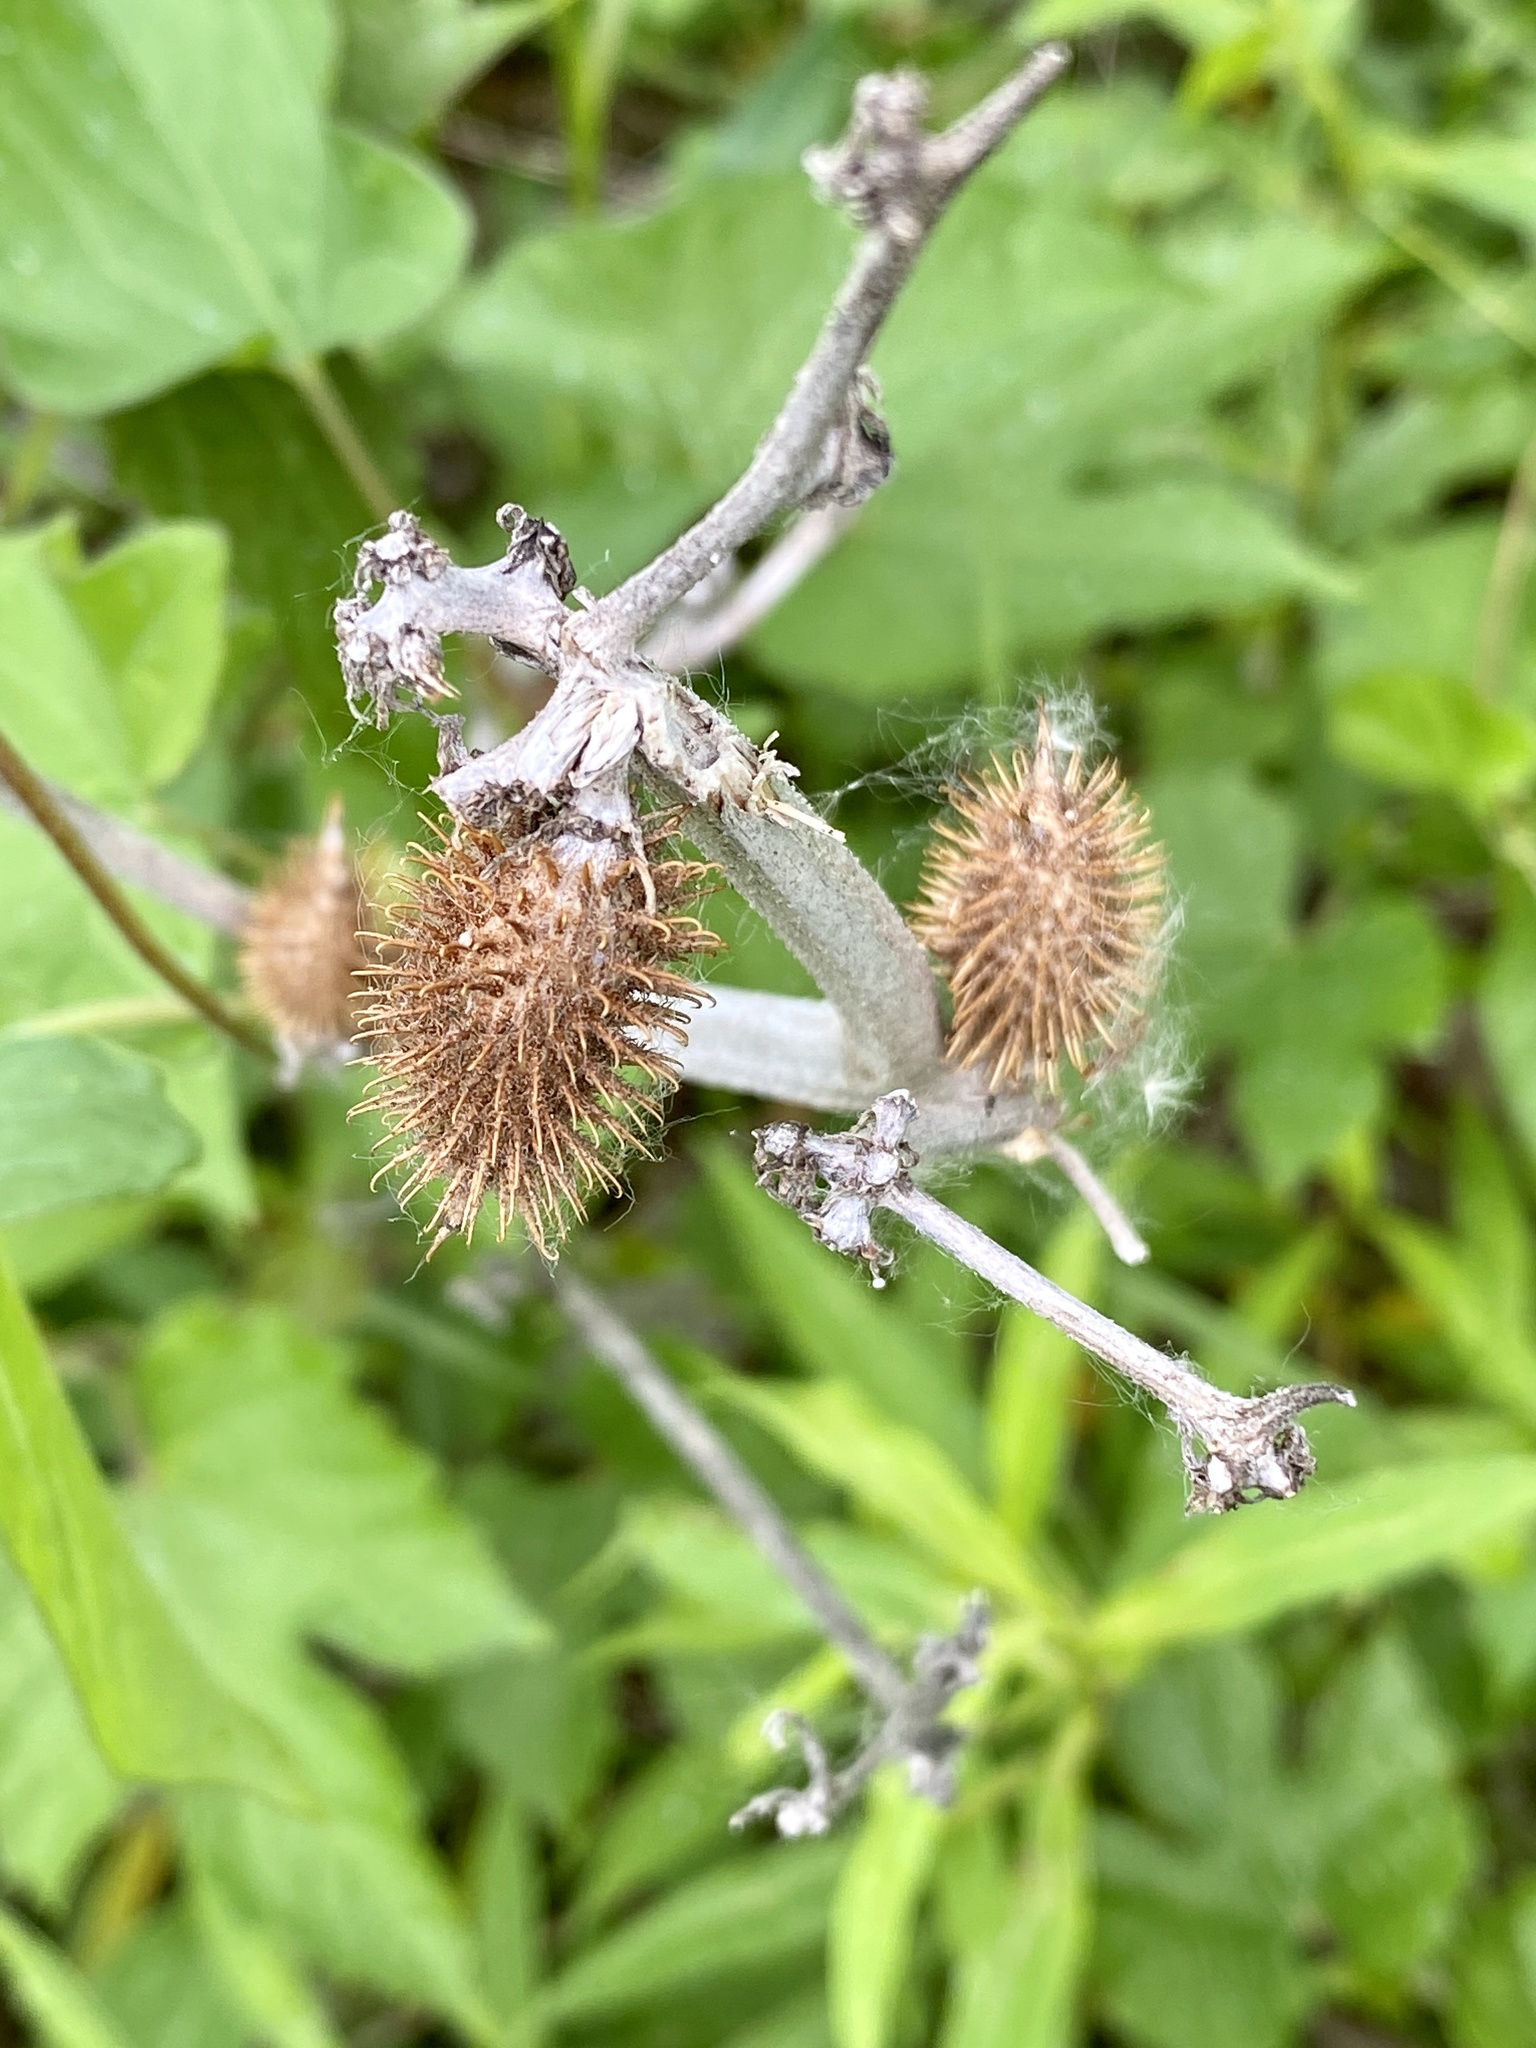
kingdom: Plantae
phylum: Tracheophyta
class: Magnoliopsida
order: Asterales
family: Asteraceae
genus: Xanthium
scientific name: Xanthium strumarium
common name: Rough cocklebur
